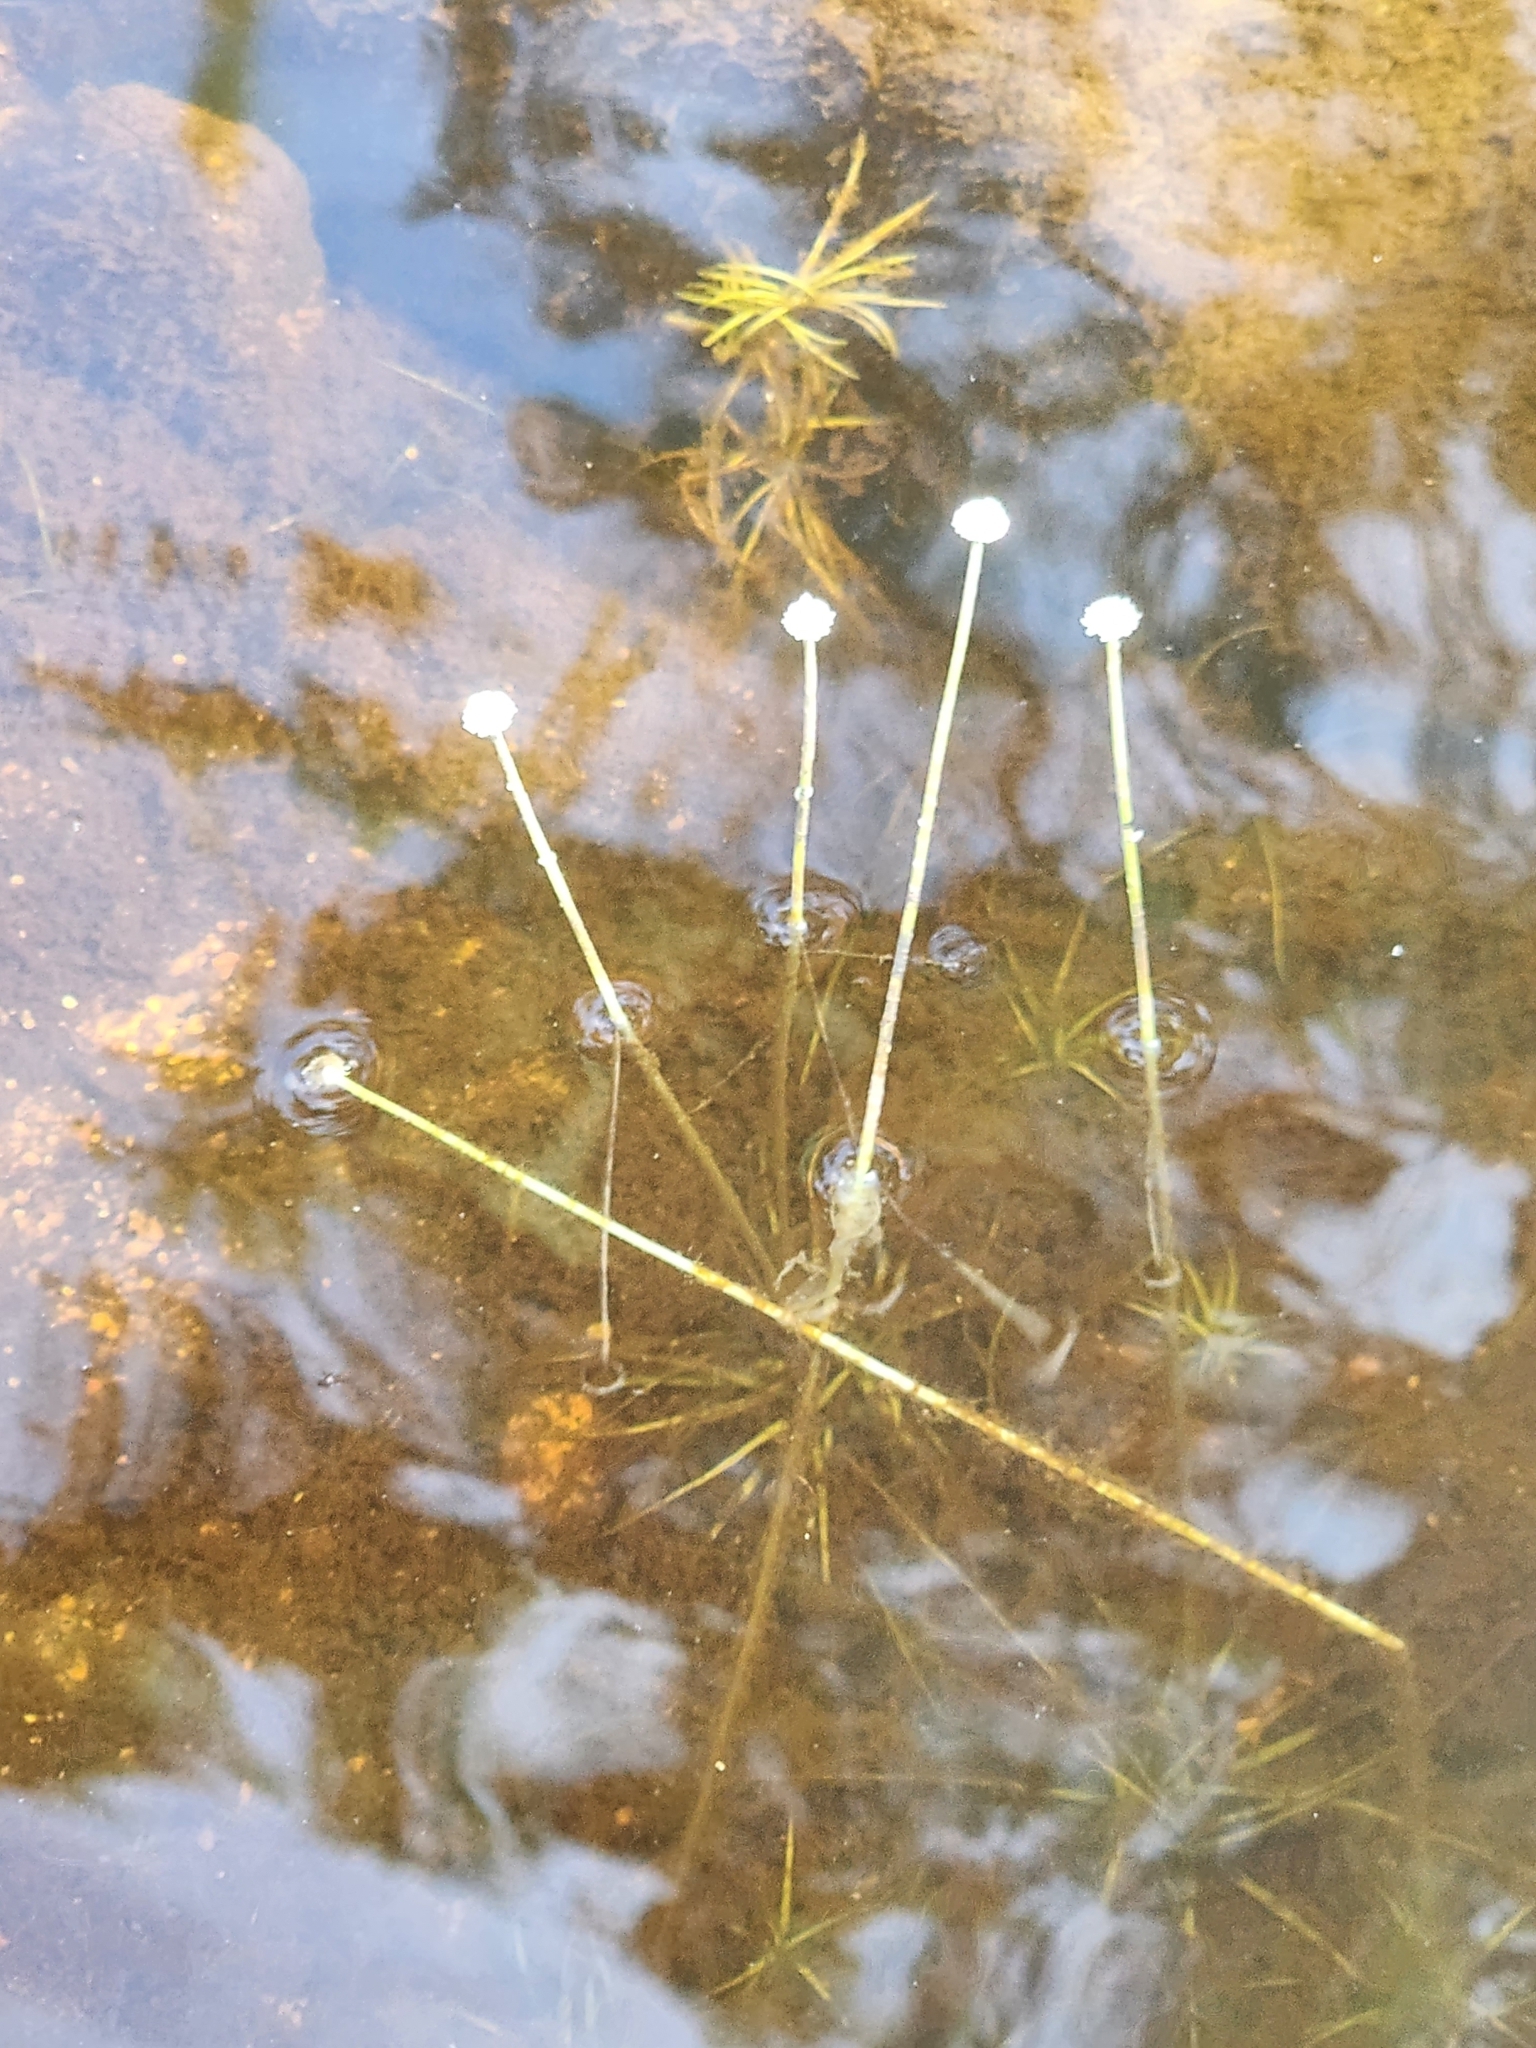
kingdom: Plantae
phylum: Tracheophyta
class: Liliopsida
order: Poales
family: Eriocaulaceae
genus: Eriocaulon
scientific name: Eriocaulon aquaticum
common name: Pipewort
